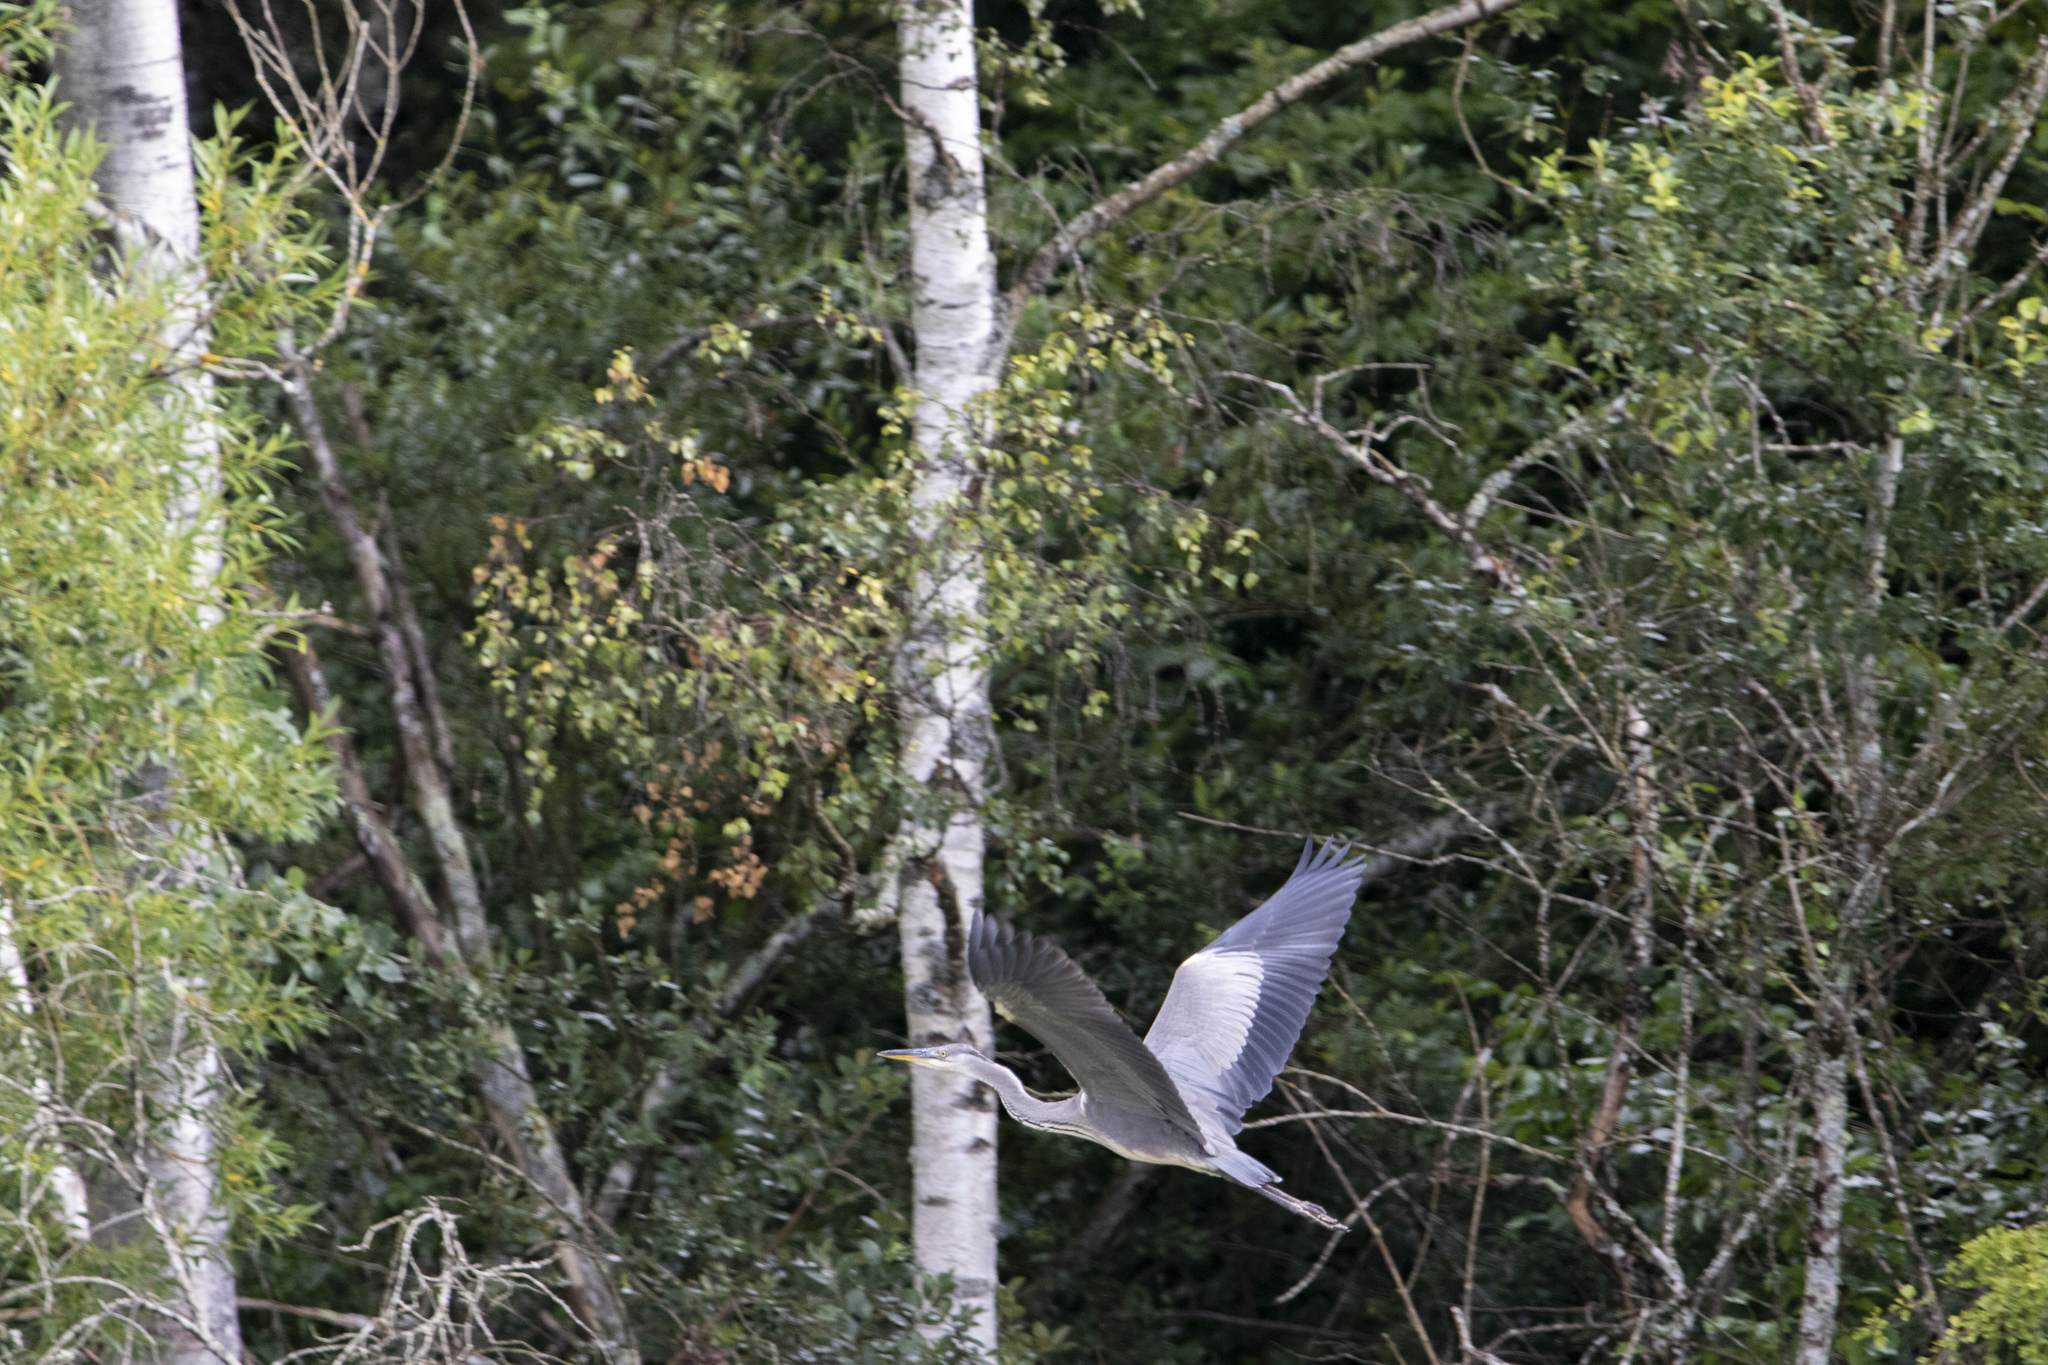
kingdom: Animalia
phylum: Chordata
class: Aves
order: Pelecaniformes
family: Ardeidae
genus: Ardea
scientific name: Ardea cinerea
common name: Grey heron
